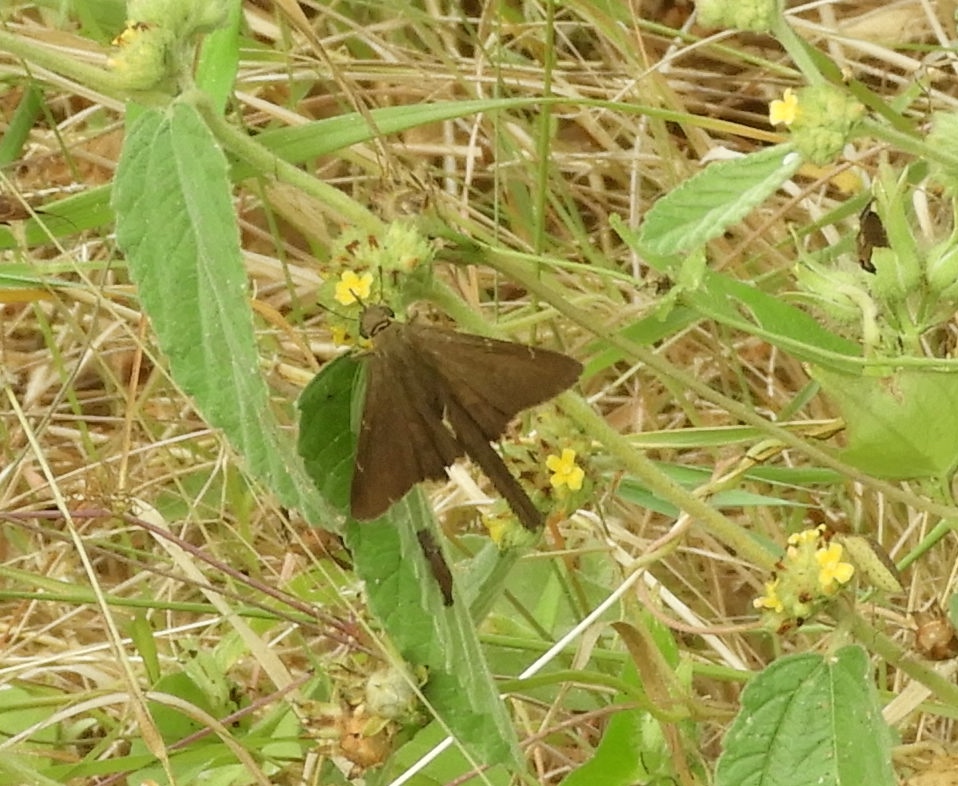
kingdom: Animalia
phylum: Arthropoda
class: Insecta
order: Lepidoptera
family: Hesperiidae
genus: Urbanus
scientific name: Urbanus procne
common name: Brown longtail
